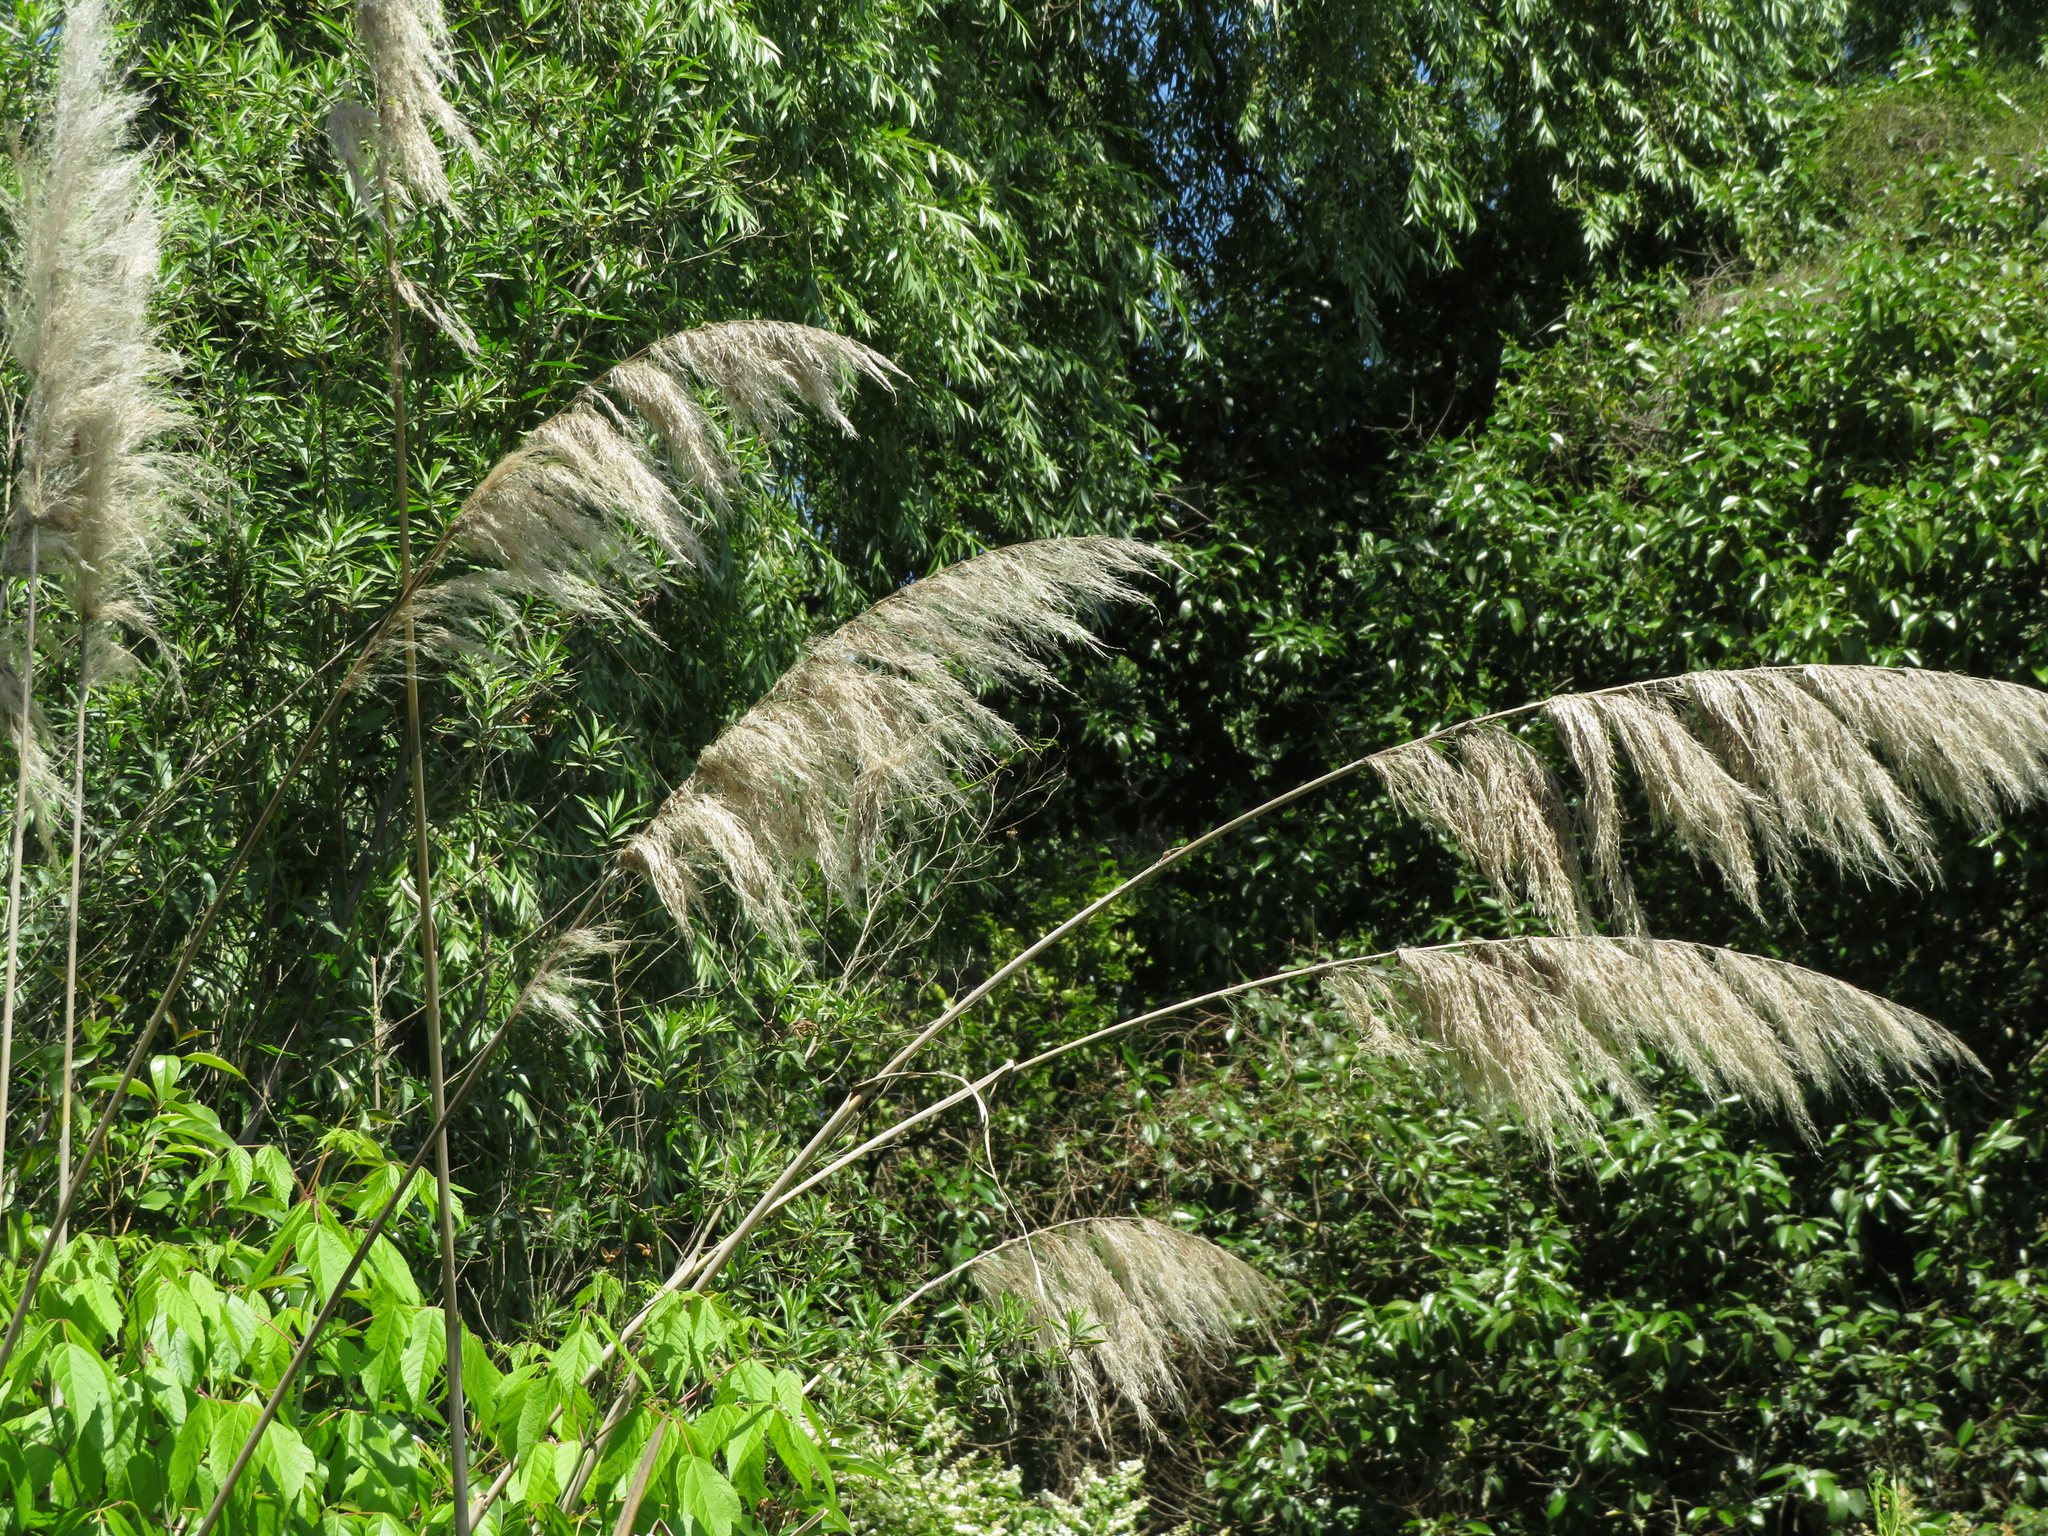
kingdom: Plantae
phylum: Tracheophyta
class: Liliopsida
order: Poales
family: Poaceae
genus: Cortaderia
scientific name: Cortaderia selloana
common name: Uruguayan pampas grass
